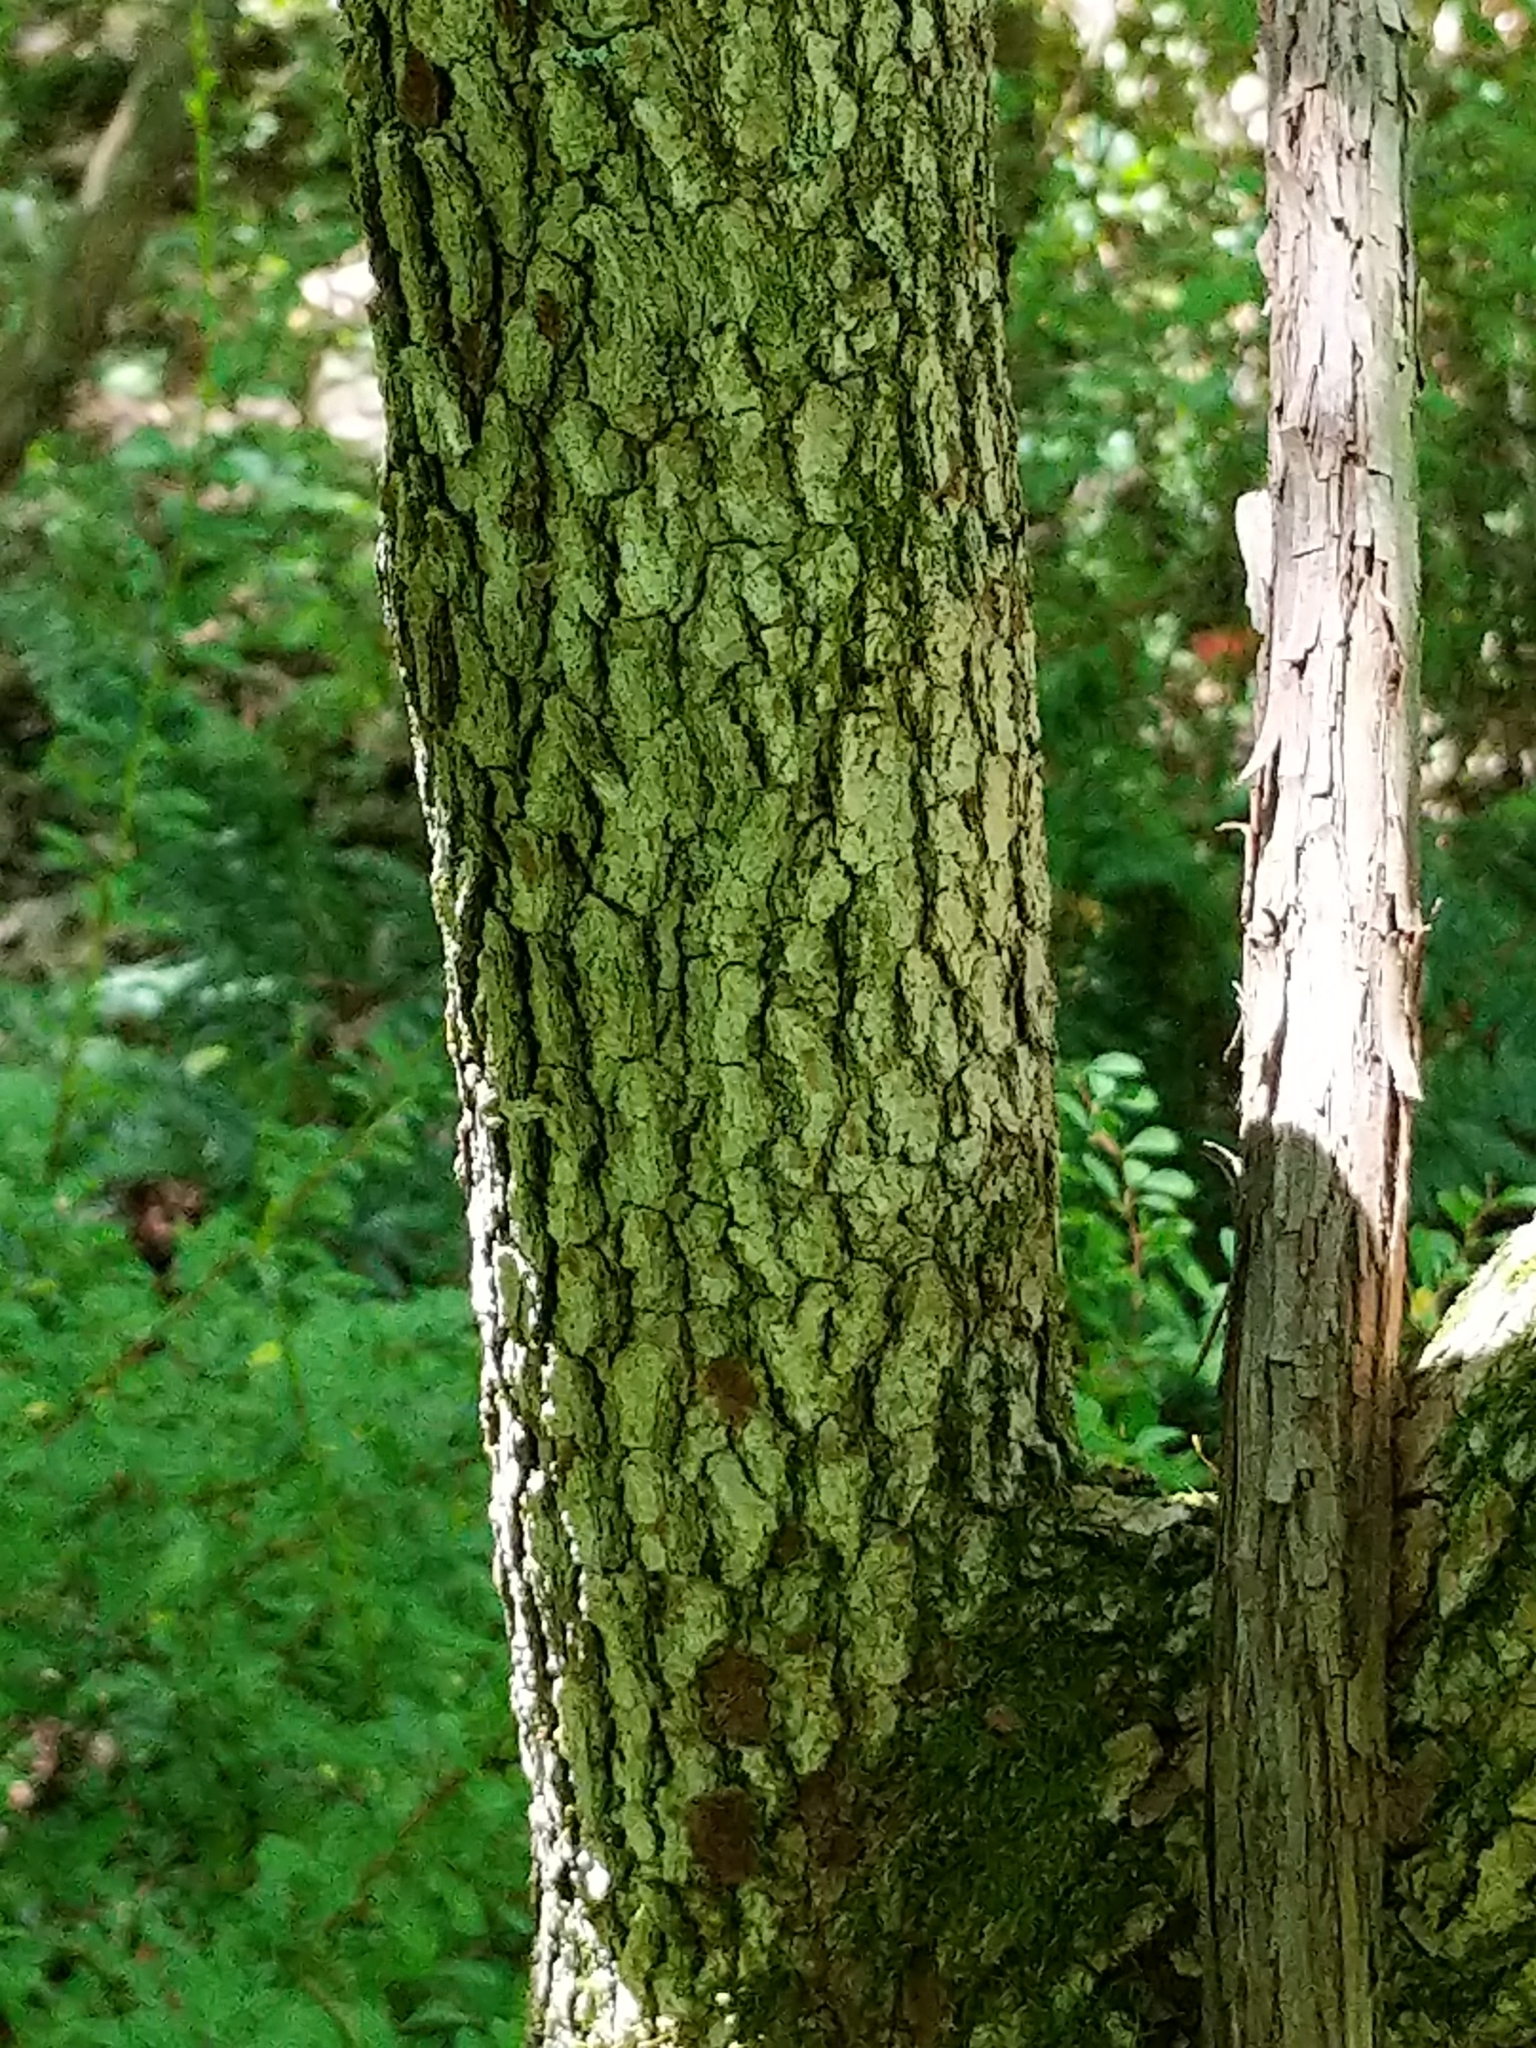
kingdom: Plantae
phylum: Tracheophyta
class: Magnoliopsida
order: Cornales
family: Cornaceae
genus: Cornus
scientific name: Cornus florida
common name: Flowering dogwood
